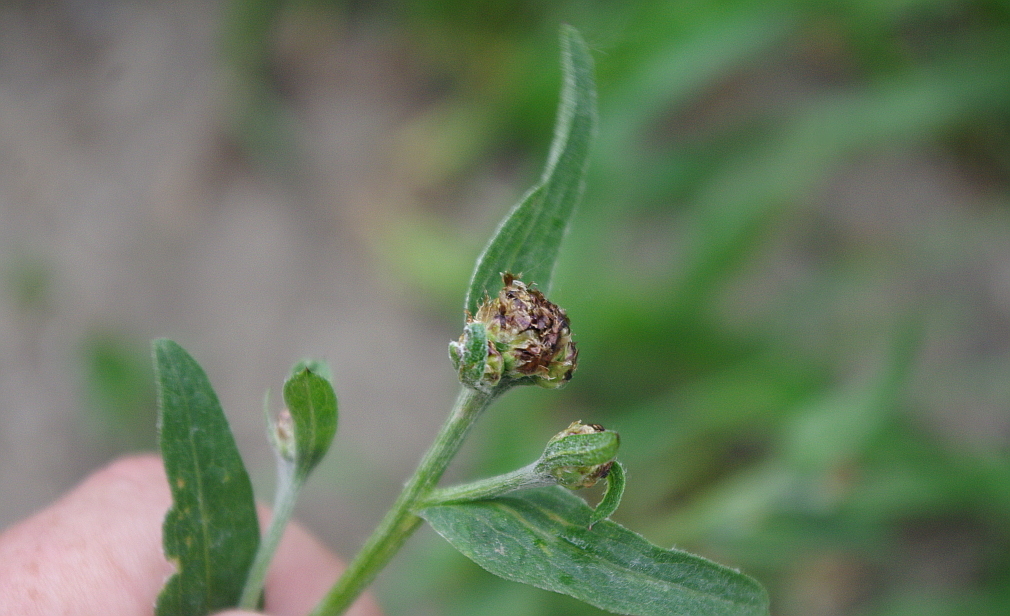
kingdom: Plantae
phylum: Tracheophyta
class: Magnoliopsida
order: Asterales
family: Asteraceae
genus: Centaurea
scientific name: Centaurea jacea
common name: Brown knapweed
